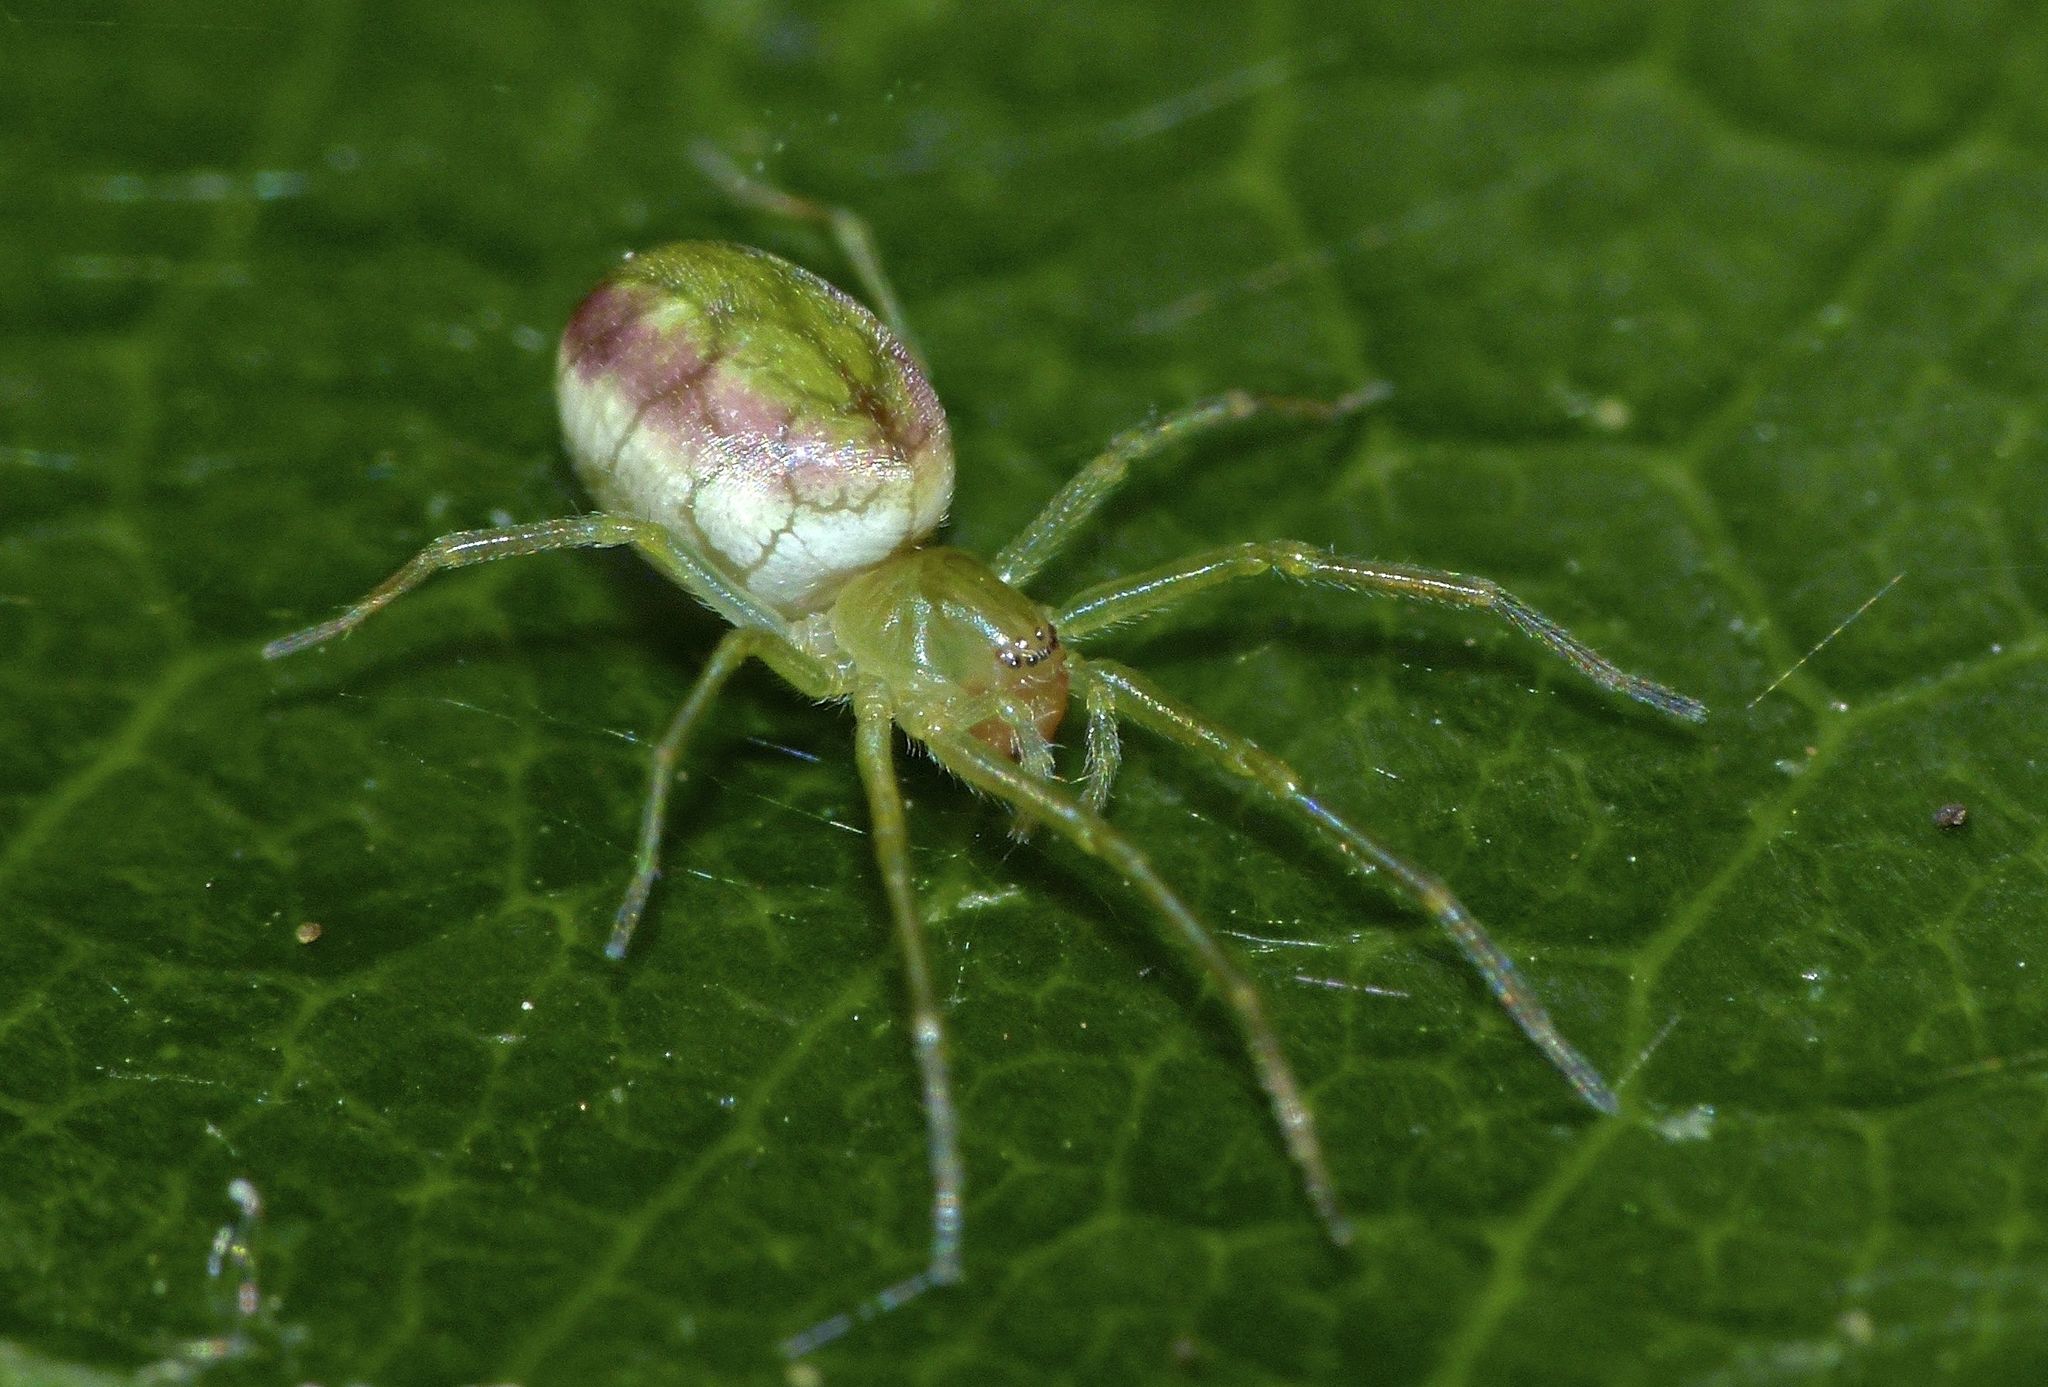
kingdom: Animalia
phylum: Arthropoda
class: Arachnida
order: Araneae
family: Dictynidae
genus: Paradictyna
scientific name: Paradictyna ilamia
